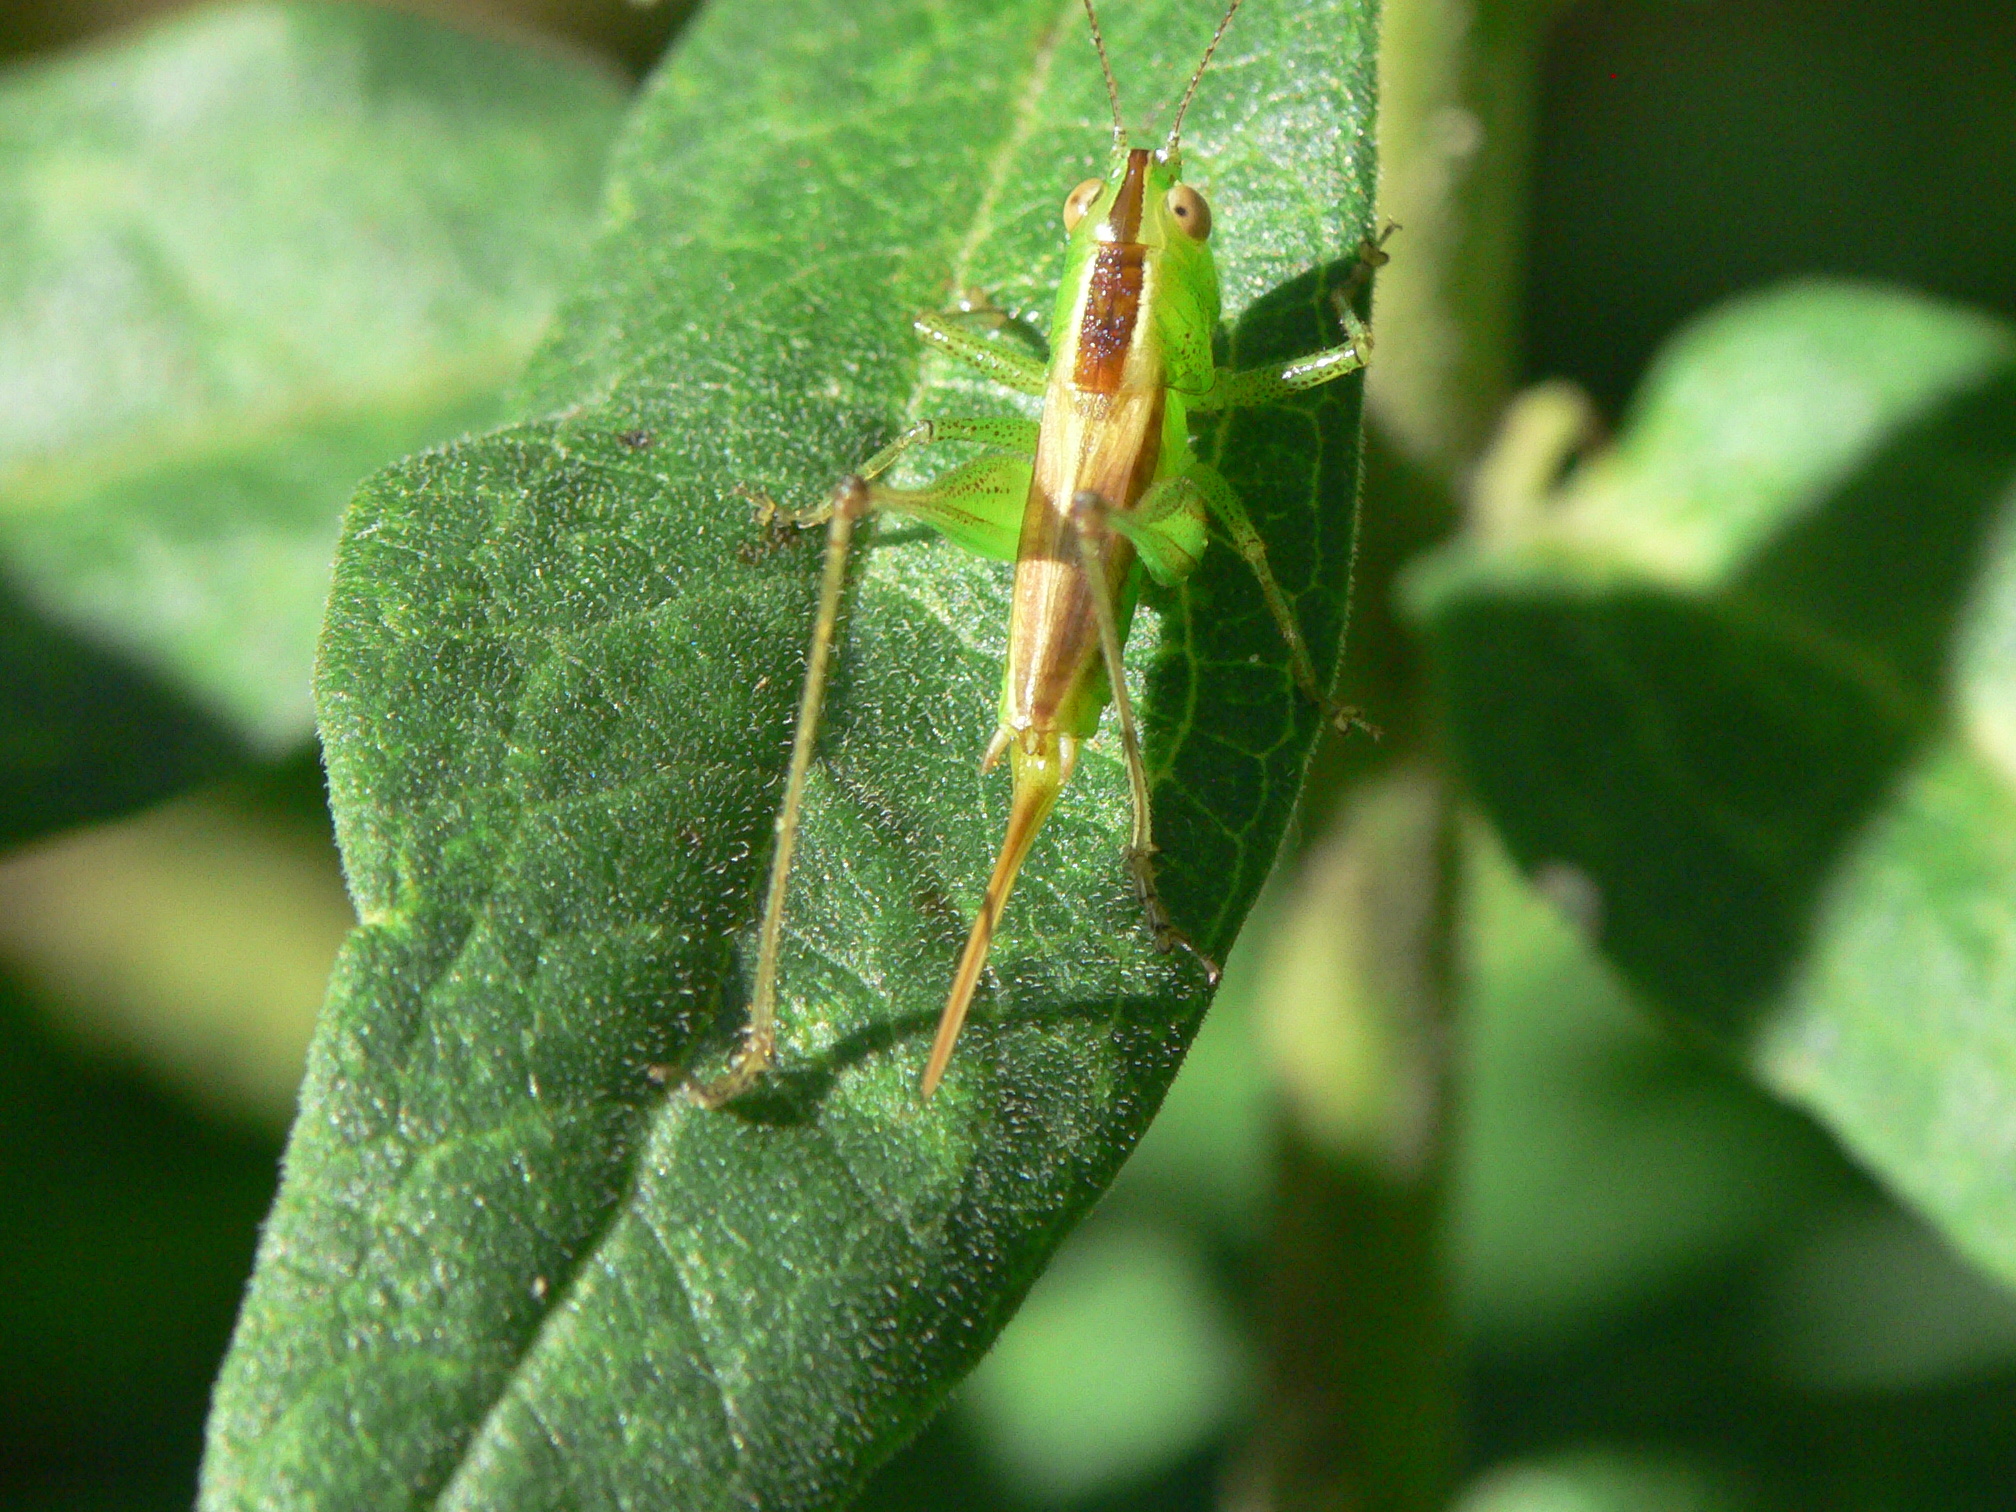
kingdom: Animalia
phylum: Arthropoda
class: Insecta
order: Orthoptera
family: Tettigoniidae
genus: Conocephalus
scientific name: Conocephalus brevipennis
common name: Short-winged meadow katydid
